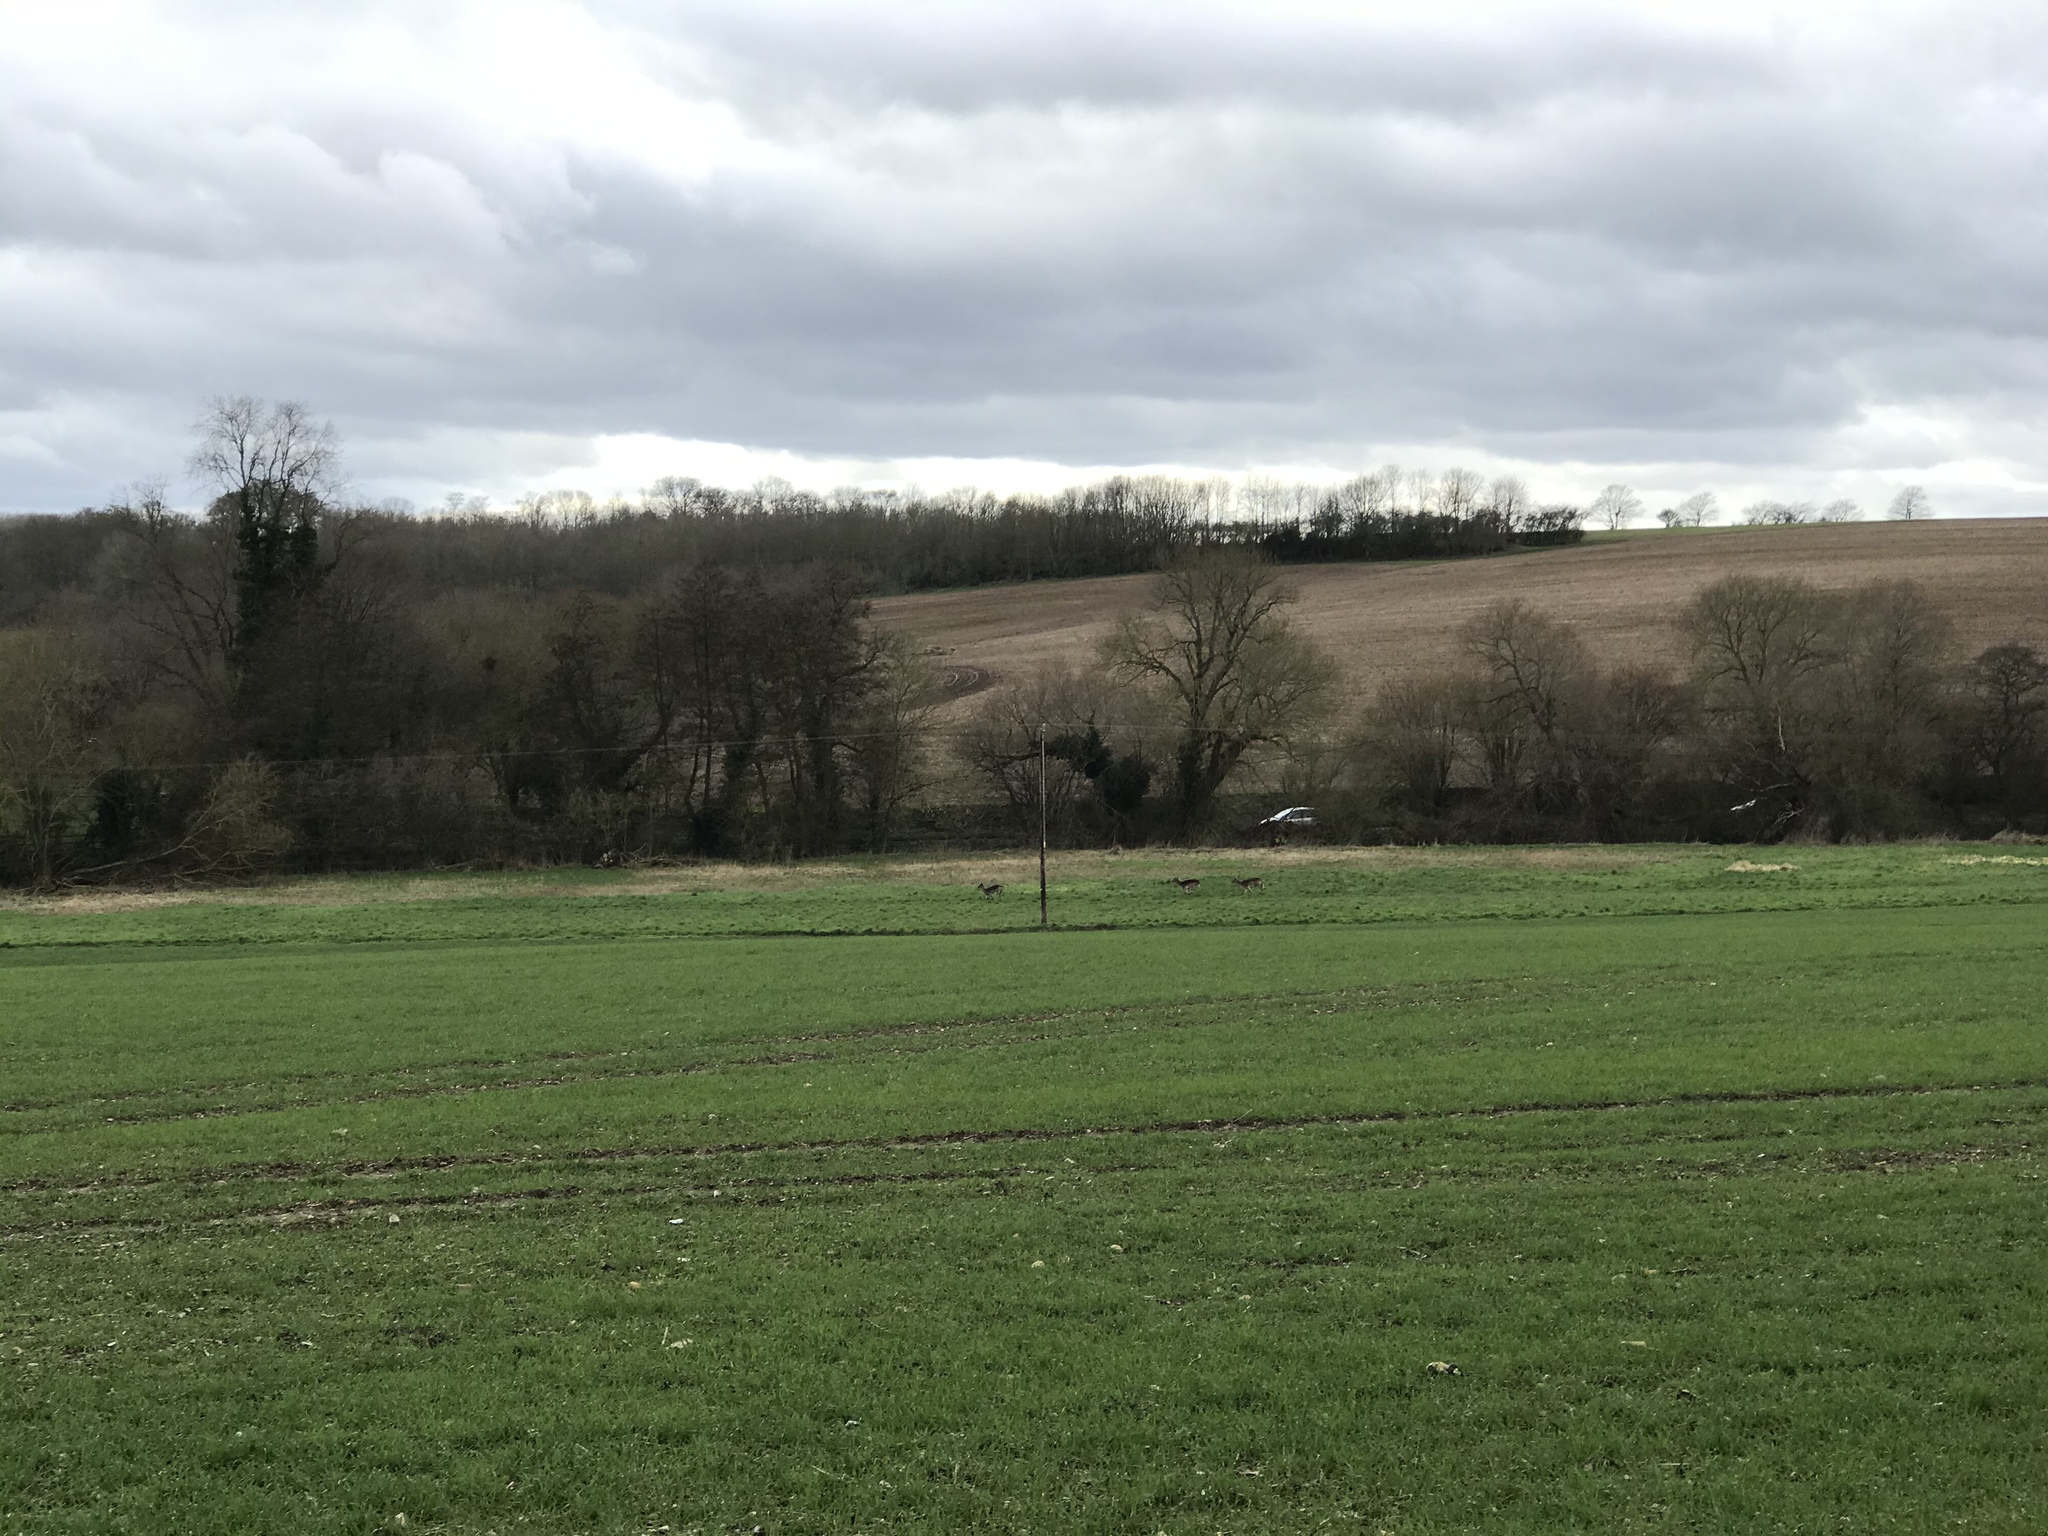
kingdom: Animalia
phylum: Chordata
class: Mammalia
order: Artiodactyla
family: Cervidae
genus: Dama
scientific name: Dama dama
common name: Fallow deer
